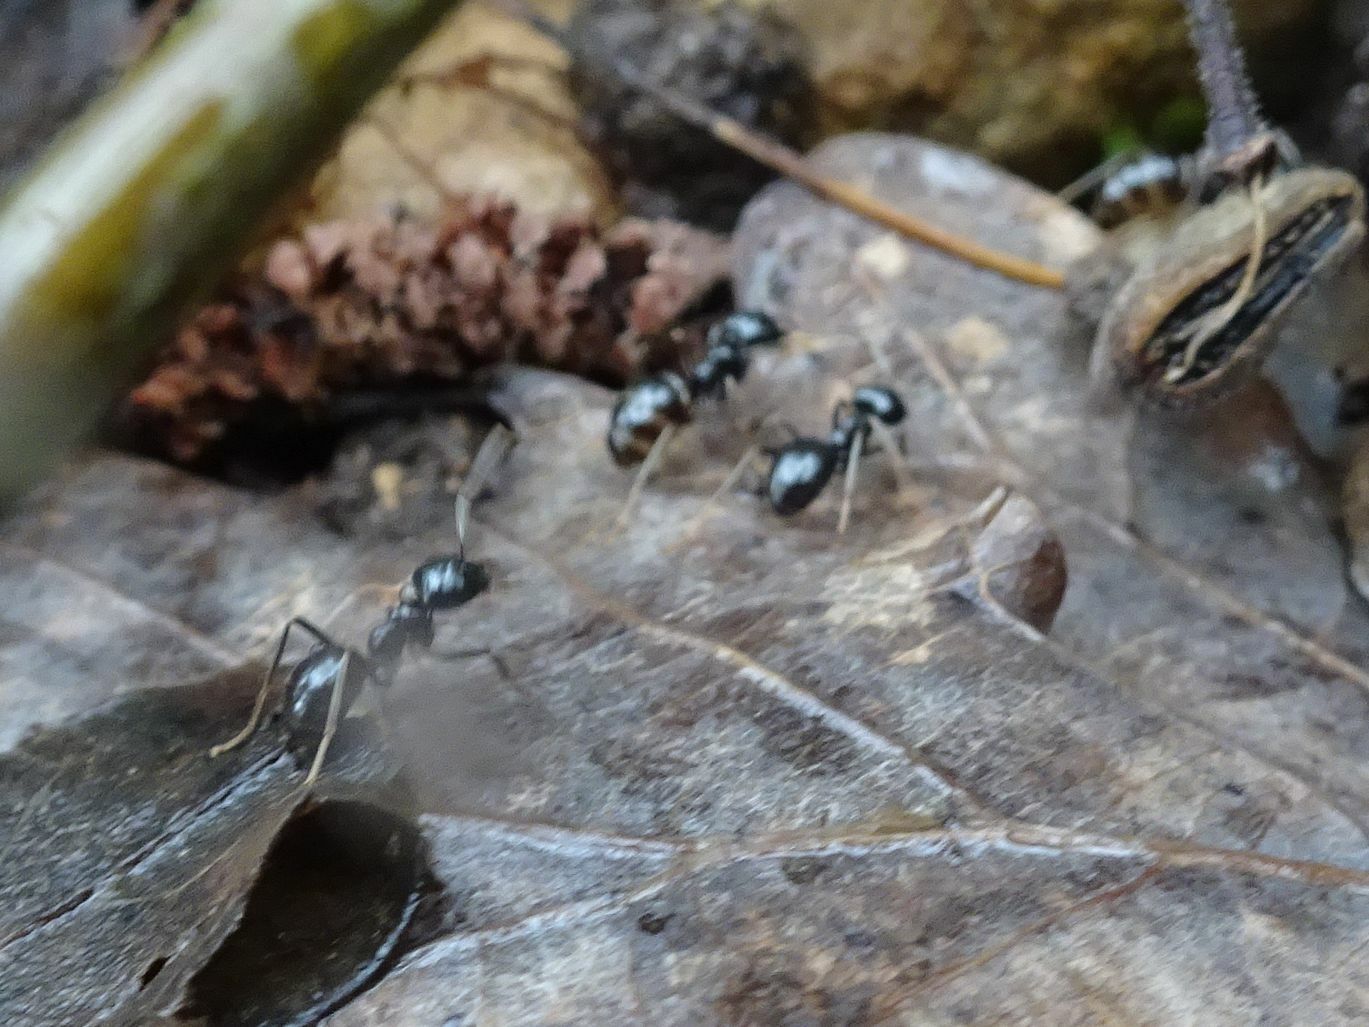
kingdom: Animalia
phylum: Arthropoda
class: Insecta
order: Hymenoptera
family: Formicidae
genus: Lasius
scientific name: Lasius fuliginosus
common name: Jet ant
